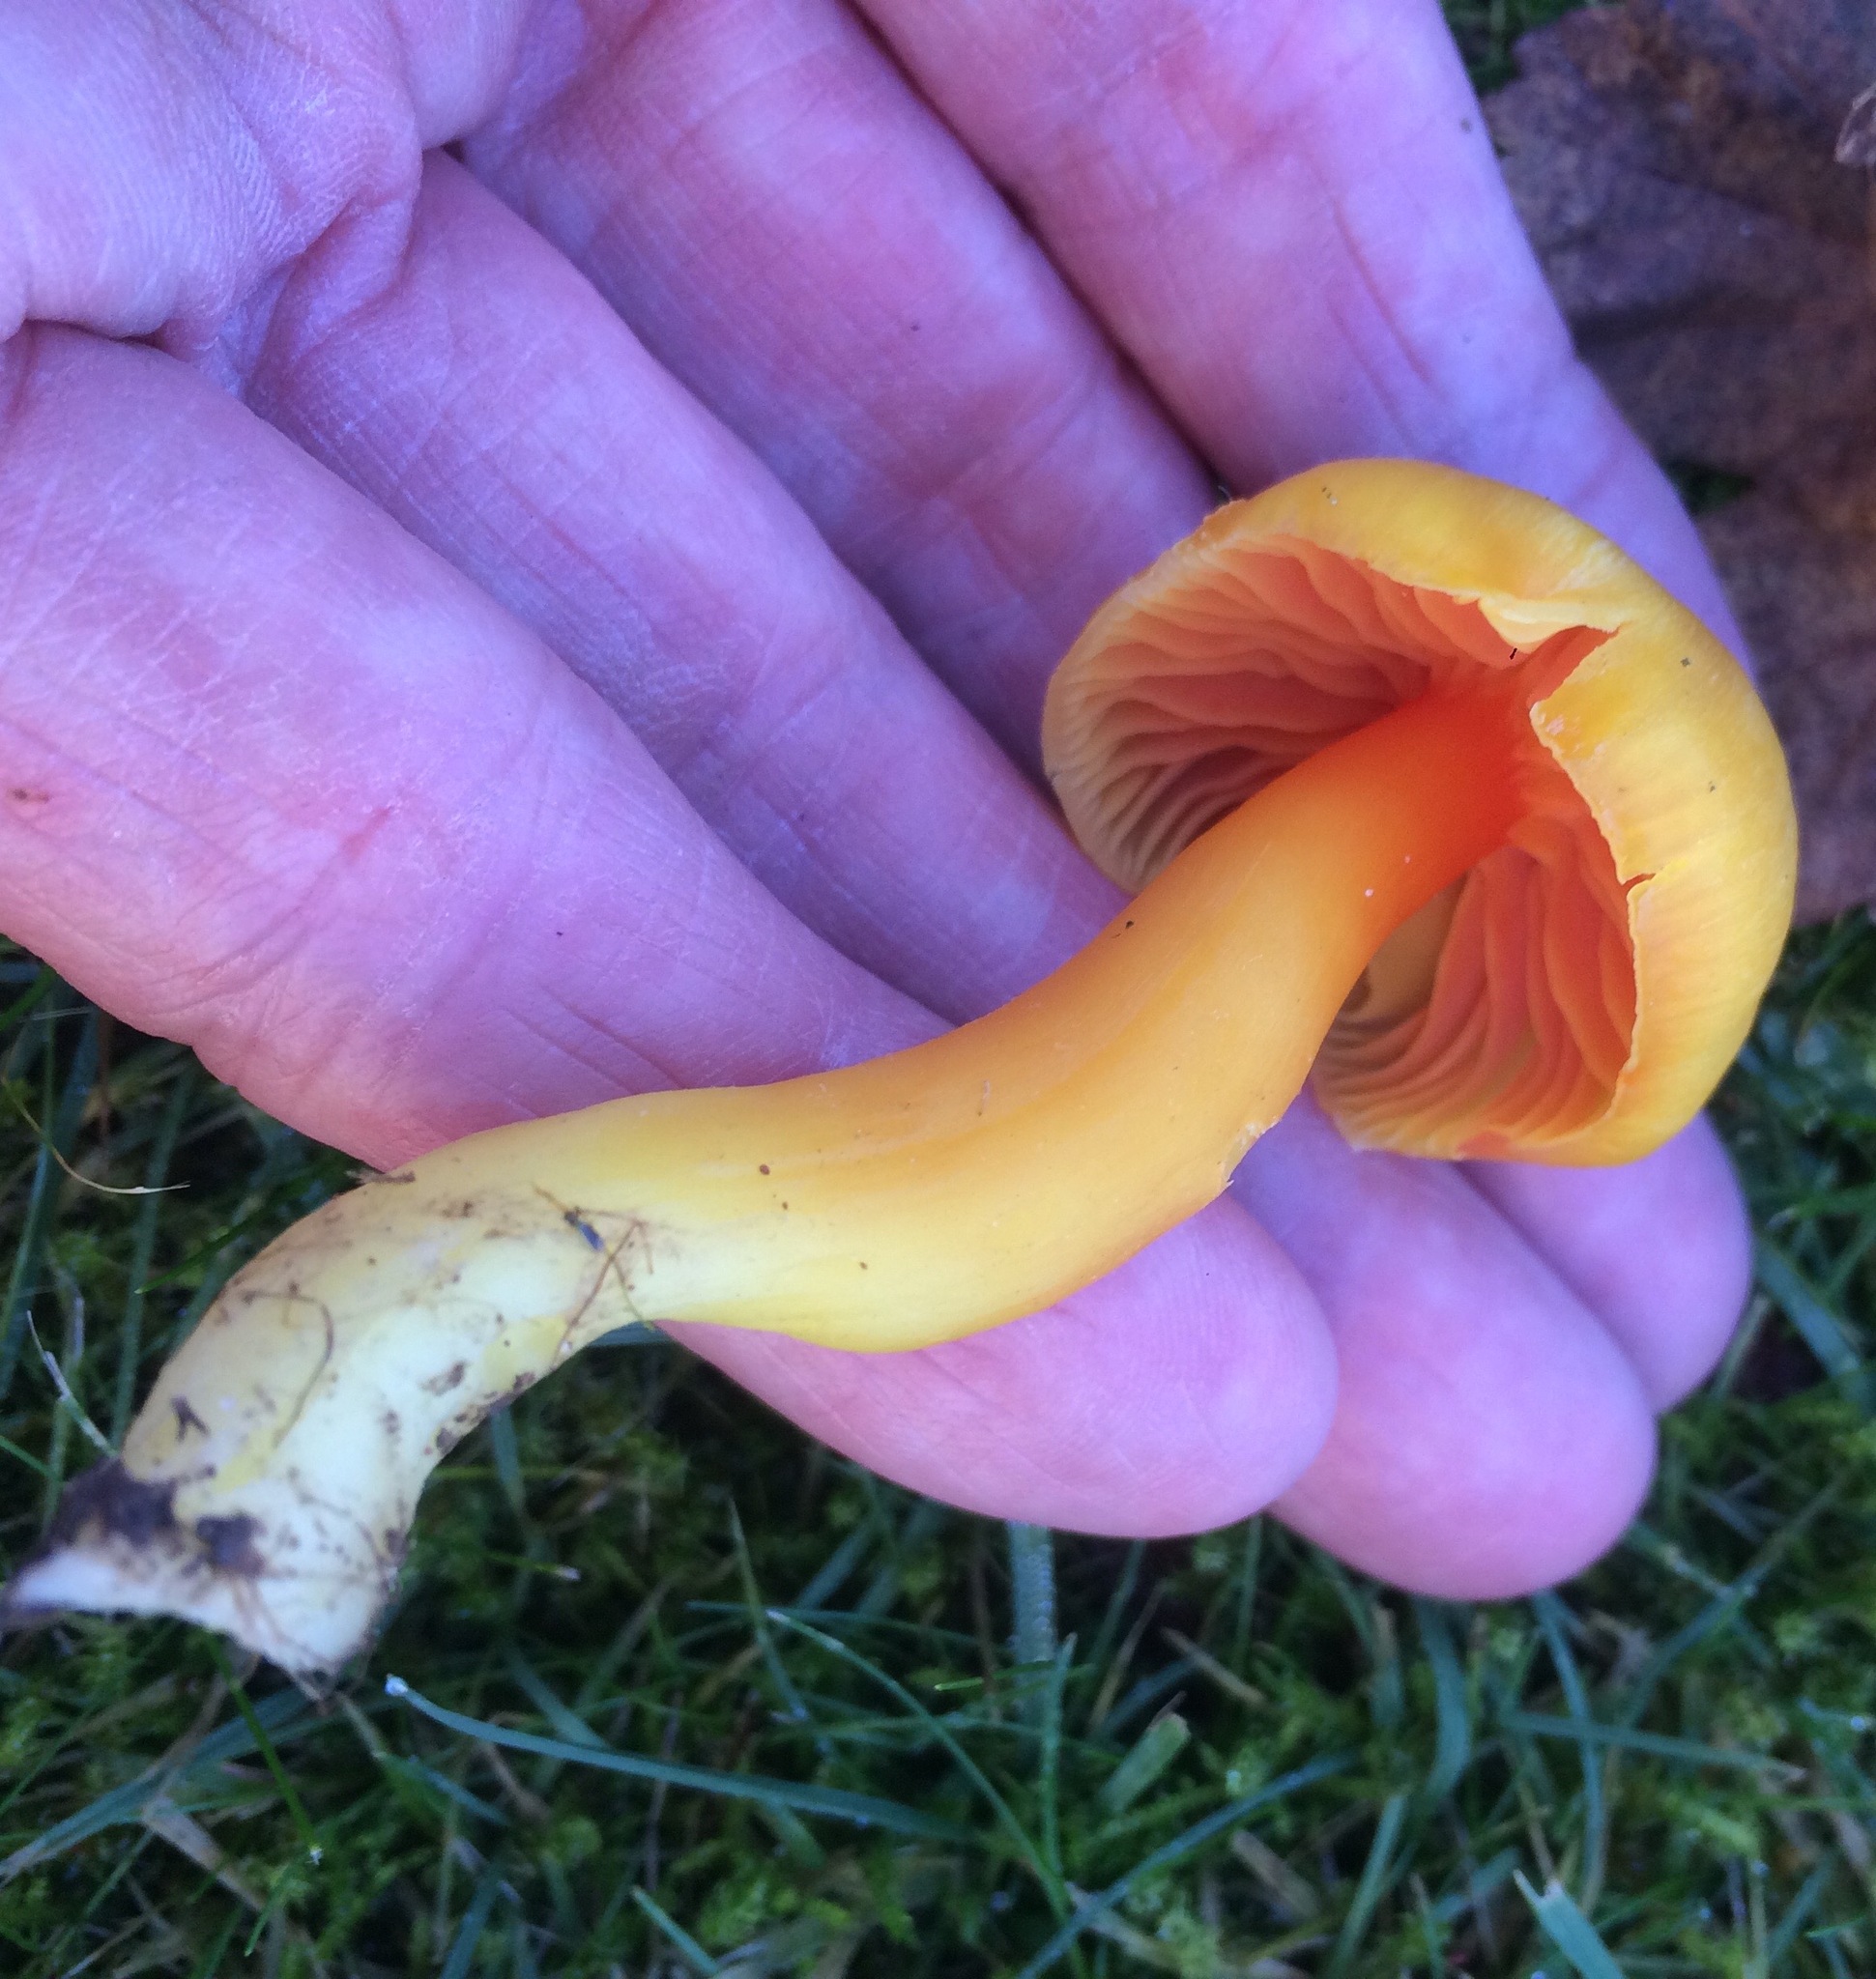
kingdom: Fungi
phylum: Basidiomycota
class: Agaricomycetes
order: Agaricales
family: Hygrophoraceae
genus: Hygrocybe
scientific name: Hygrocybe quieta
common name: Oily waxcap
